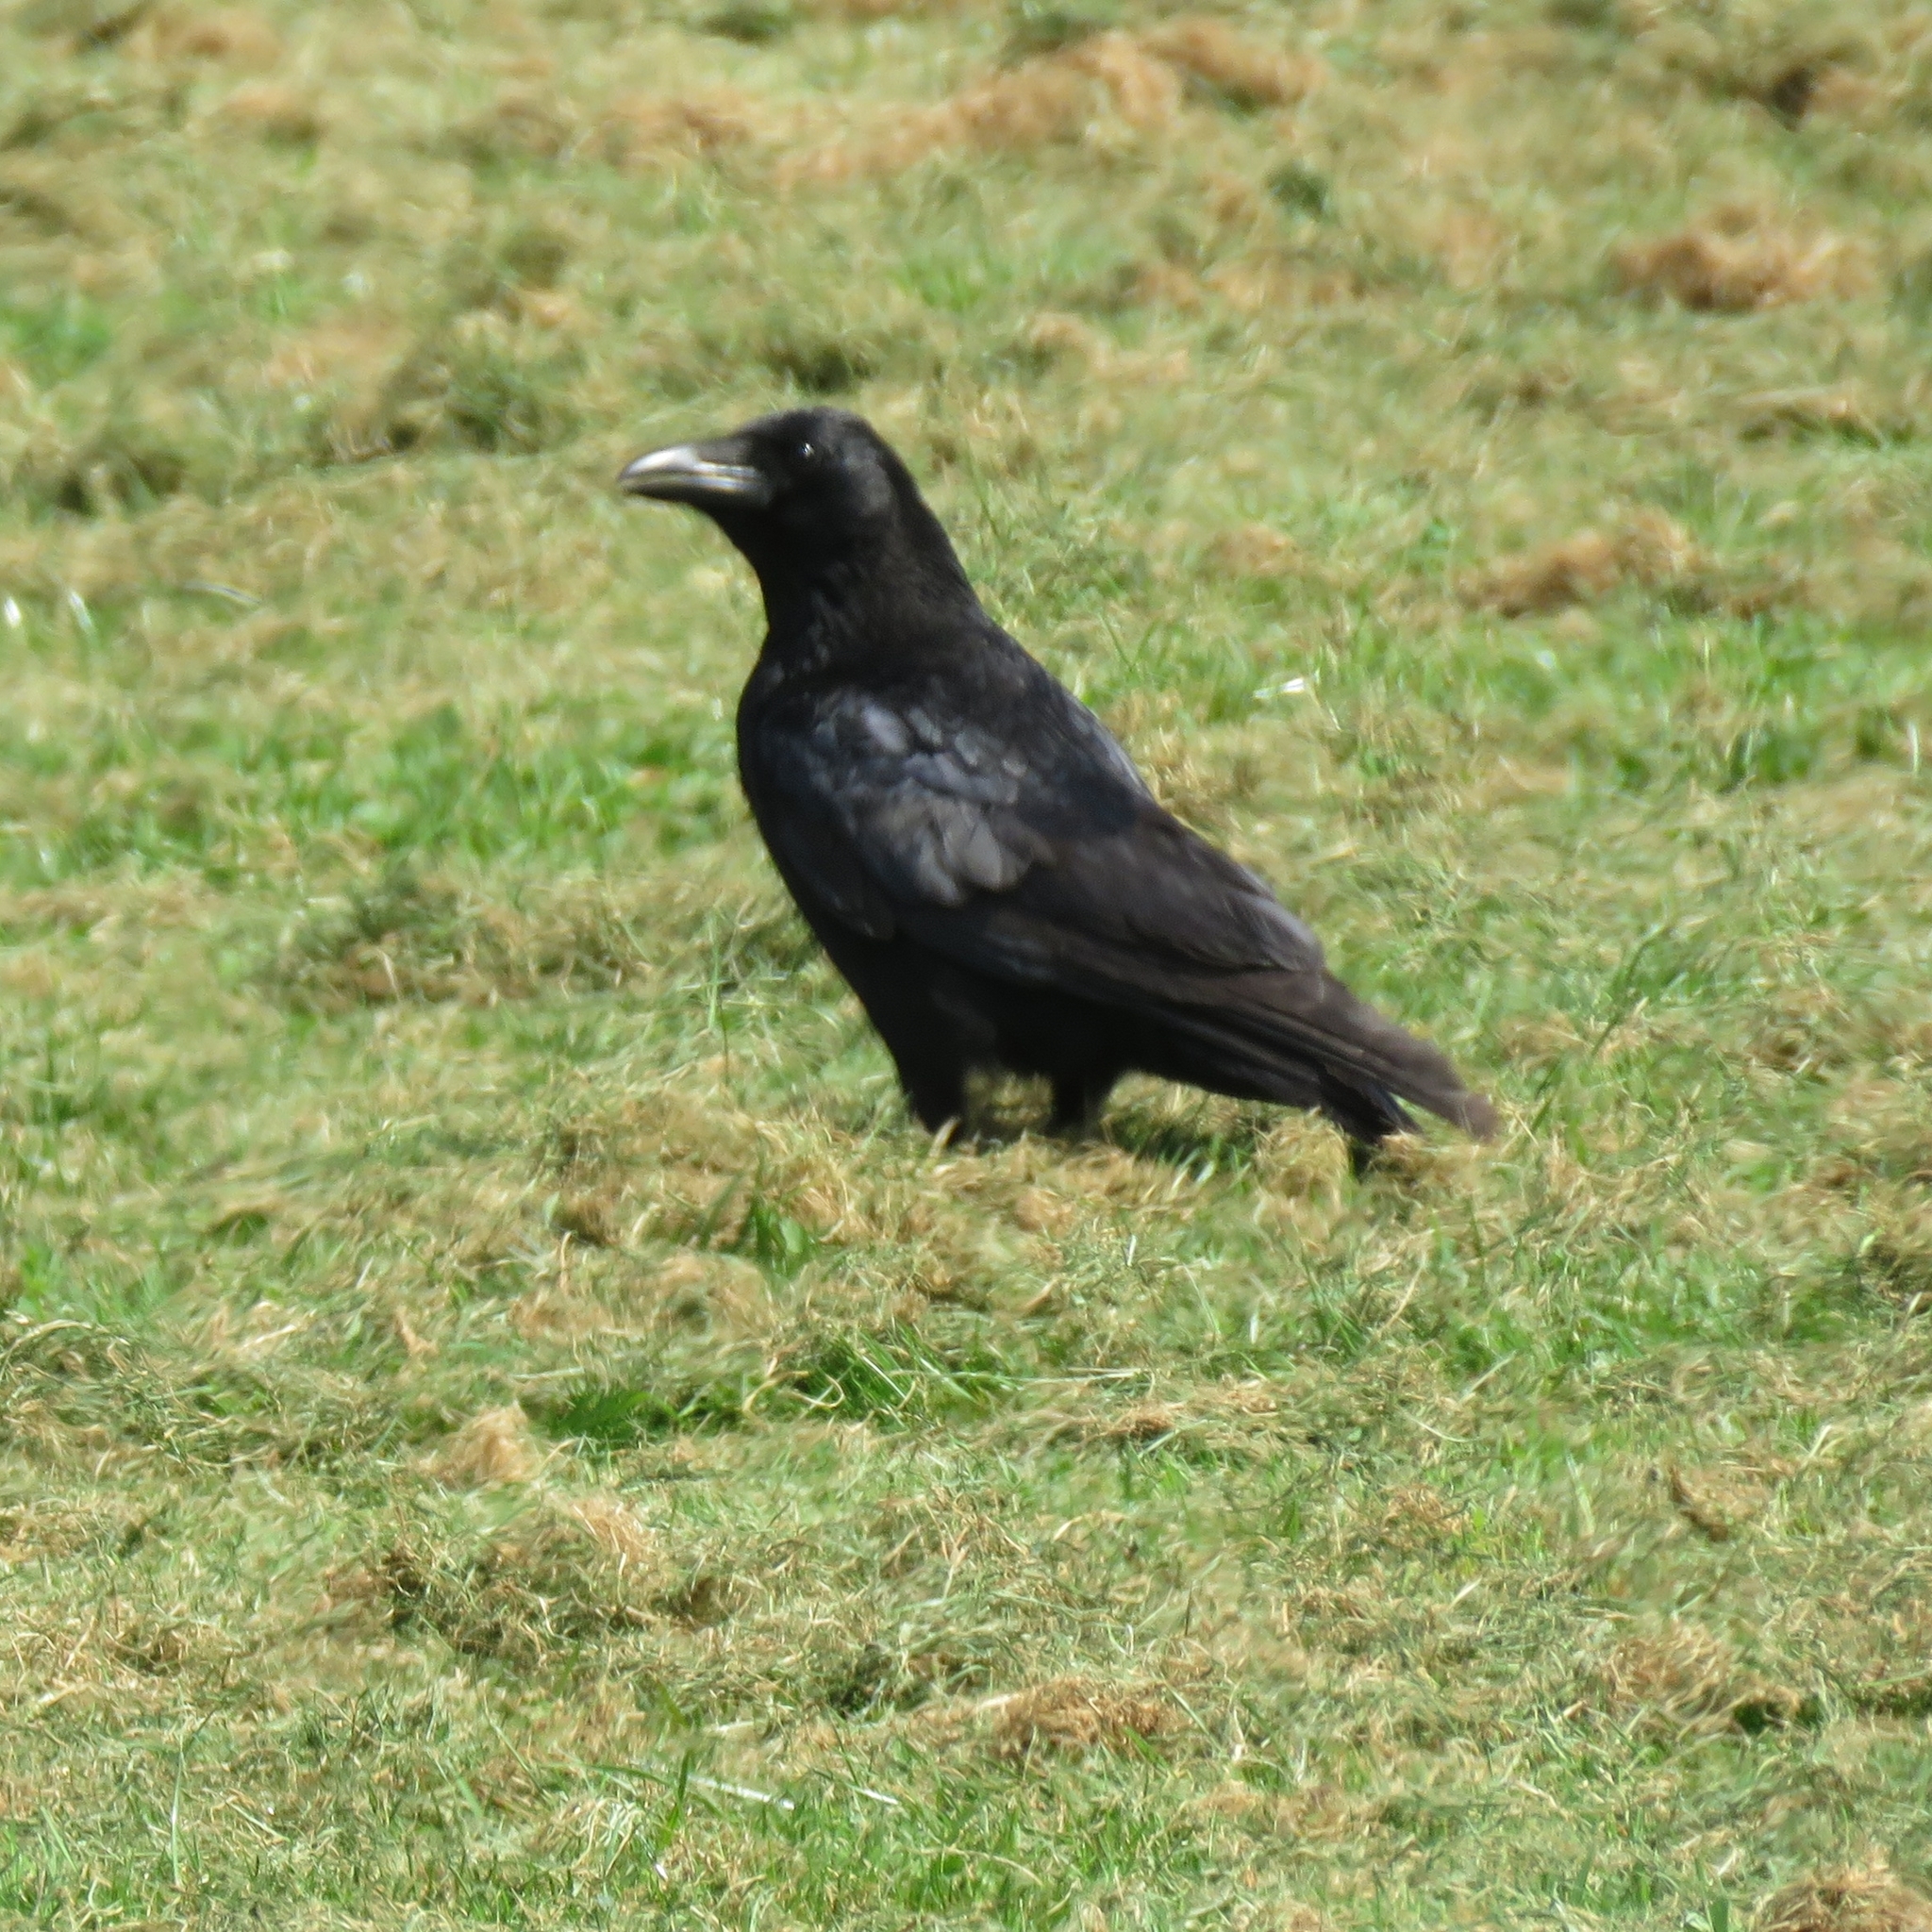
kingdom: Animalia
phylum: Chordata
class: Aves
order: Passeriformes
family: Corvidae
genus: Corvus
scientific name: Corvus corone
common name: Carrion crow
